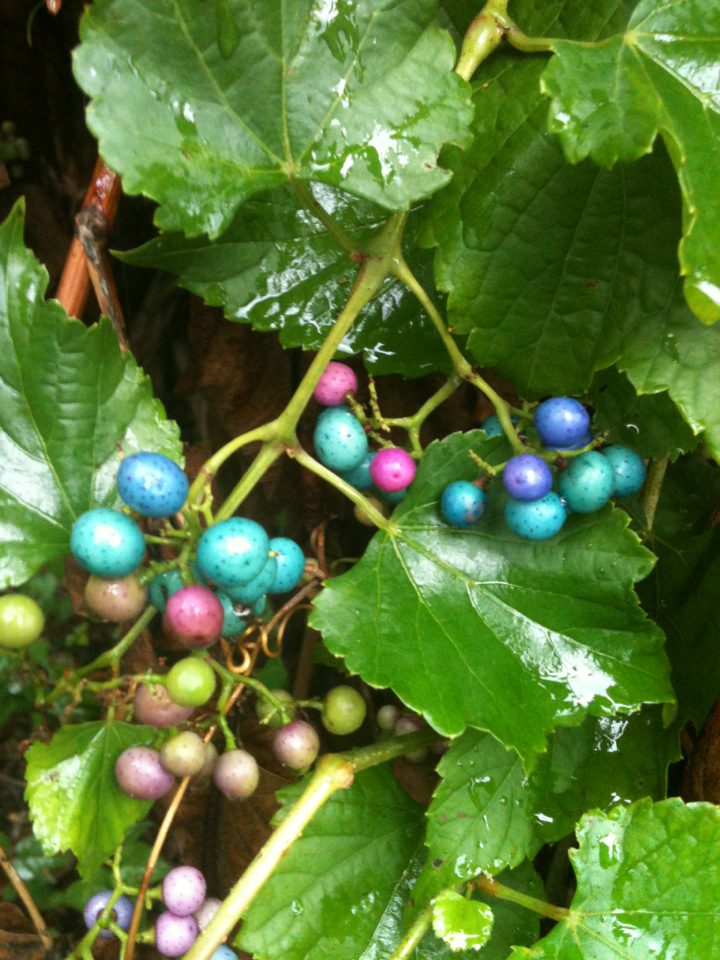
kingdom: Plantae
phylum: Tracheophyta
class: Magnoliopsida
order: Vitales
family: Vitaceae
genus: Ampelopsis
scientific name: Ampelopsis glandulosa
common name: Amur peppervine
